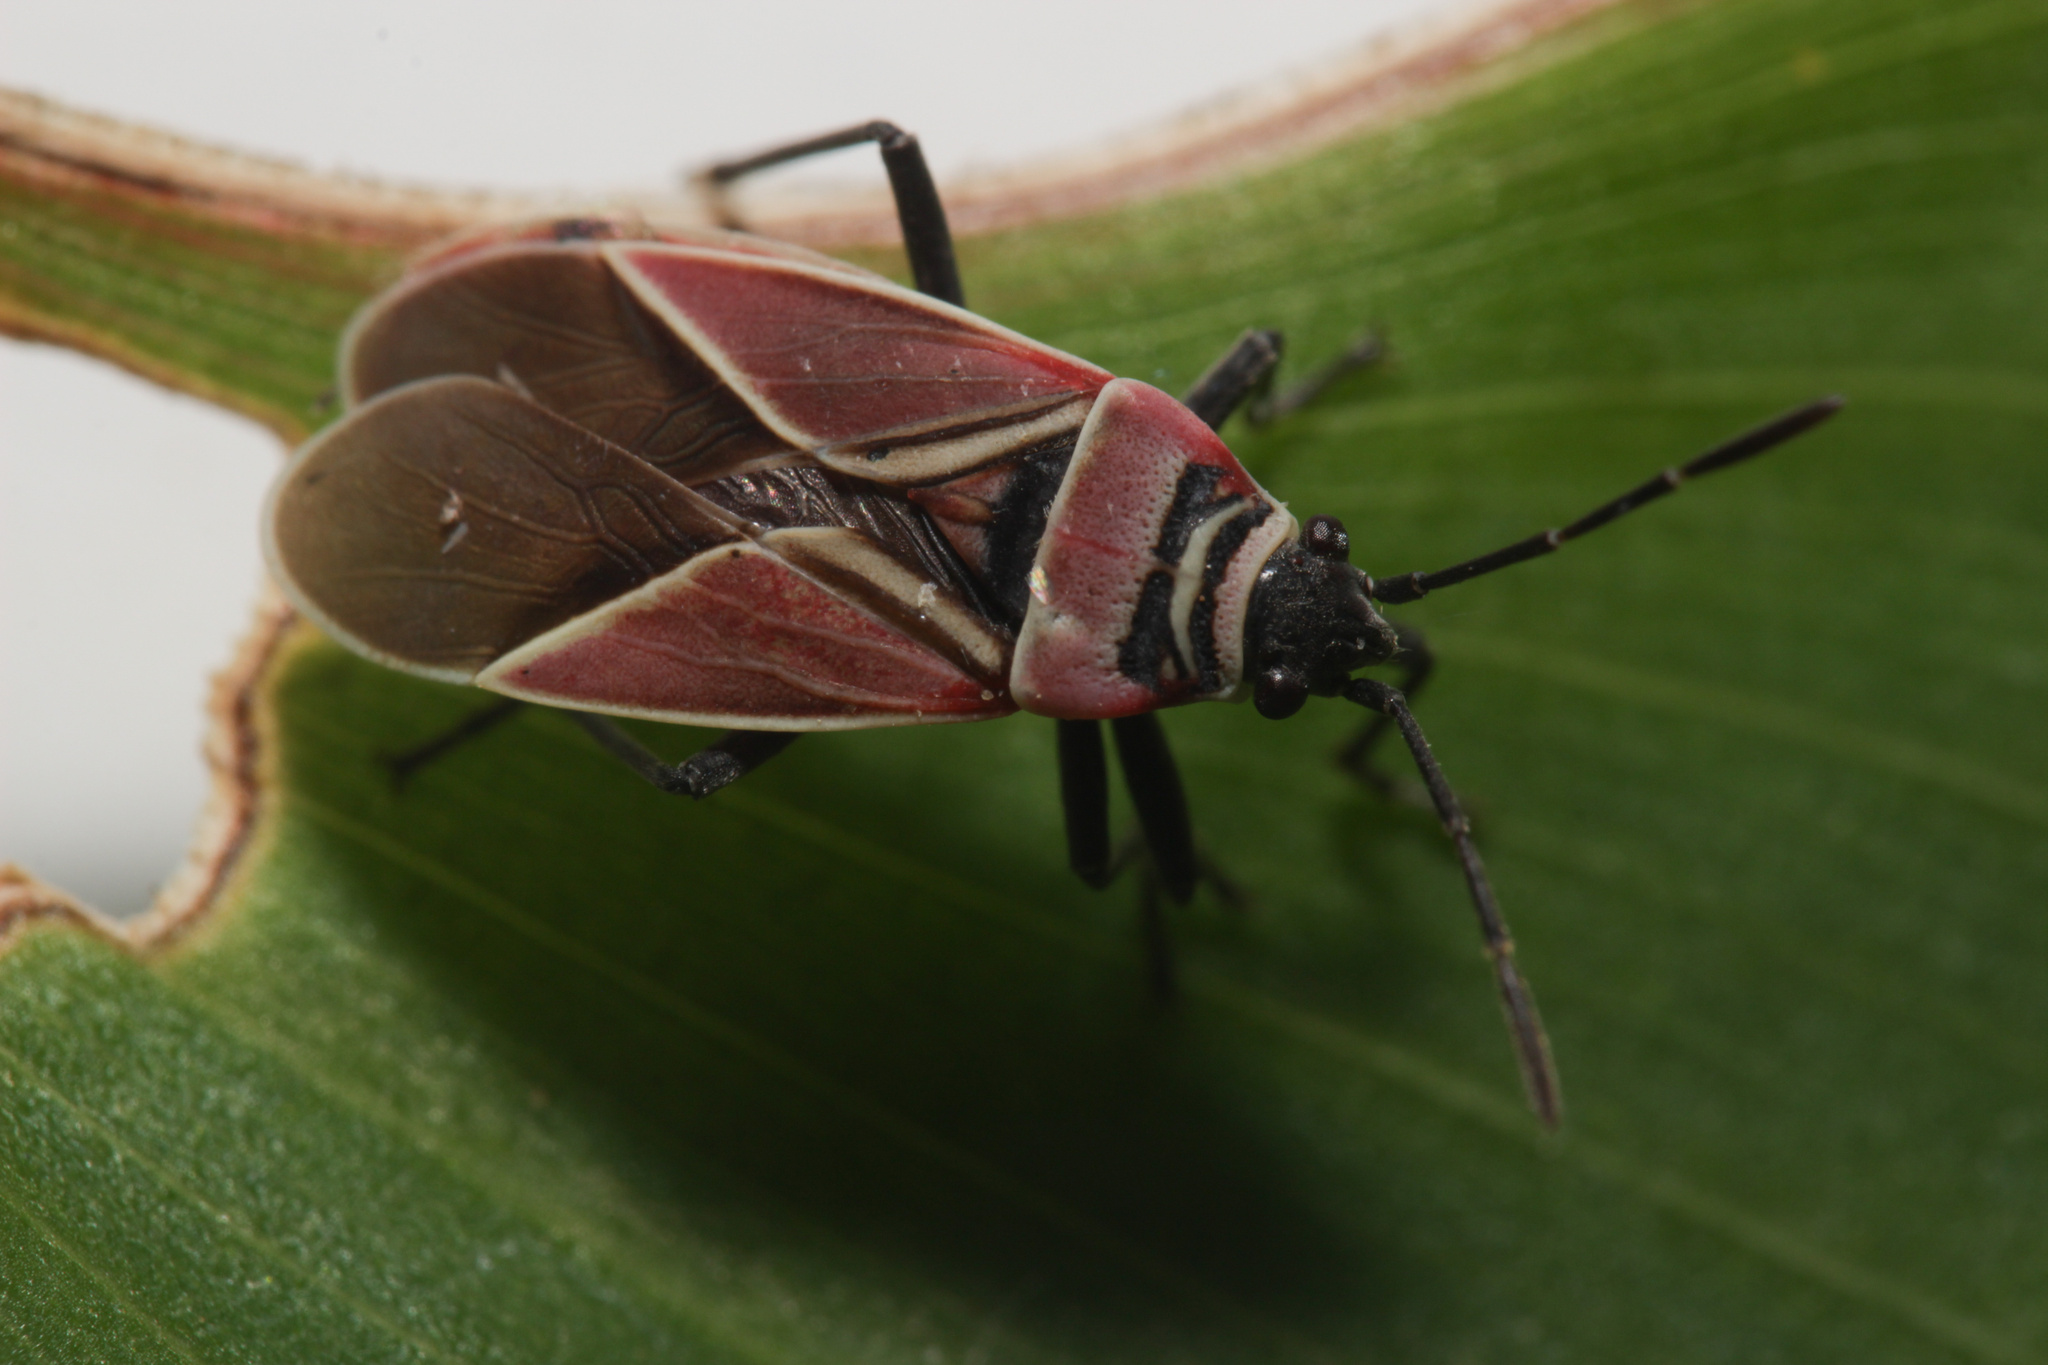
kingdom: Animalia
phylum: Arthropoda
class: Insecta
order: Hemiptera
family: Lygaeidae
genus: Neacoryphus
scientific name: Neacoryphus bicrucis
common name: Lygaeid bug
